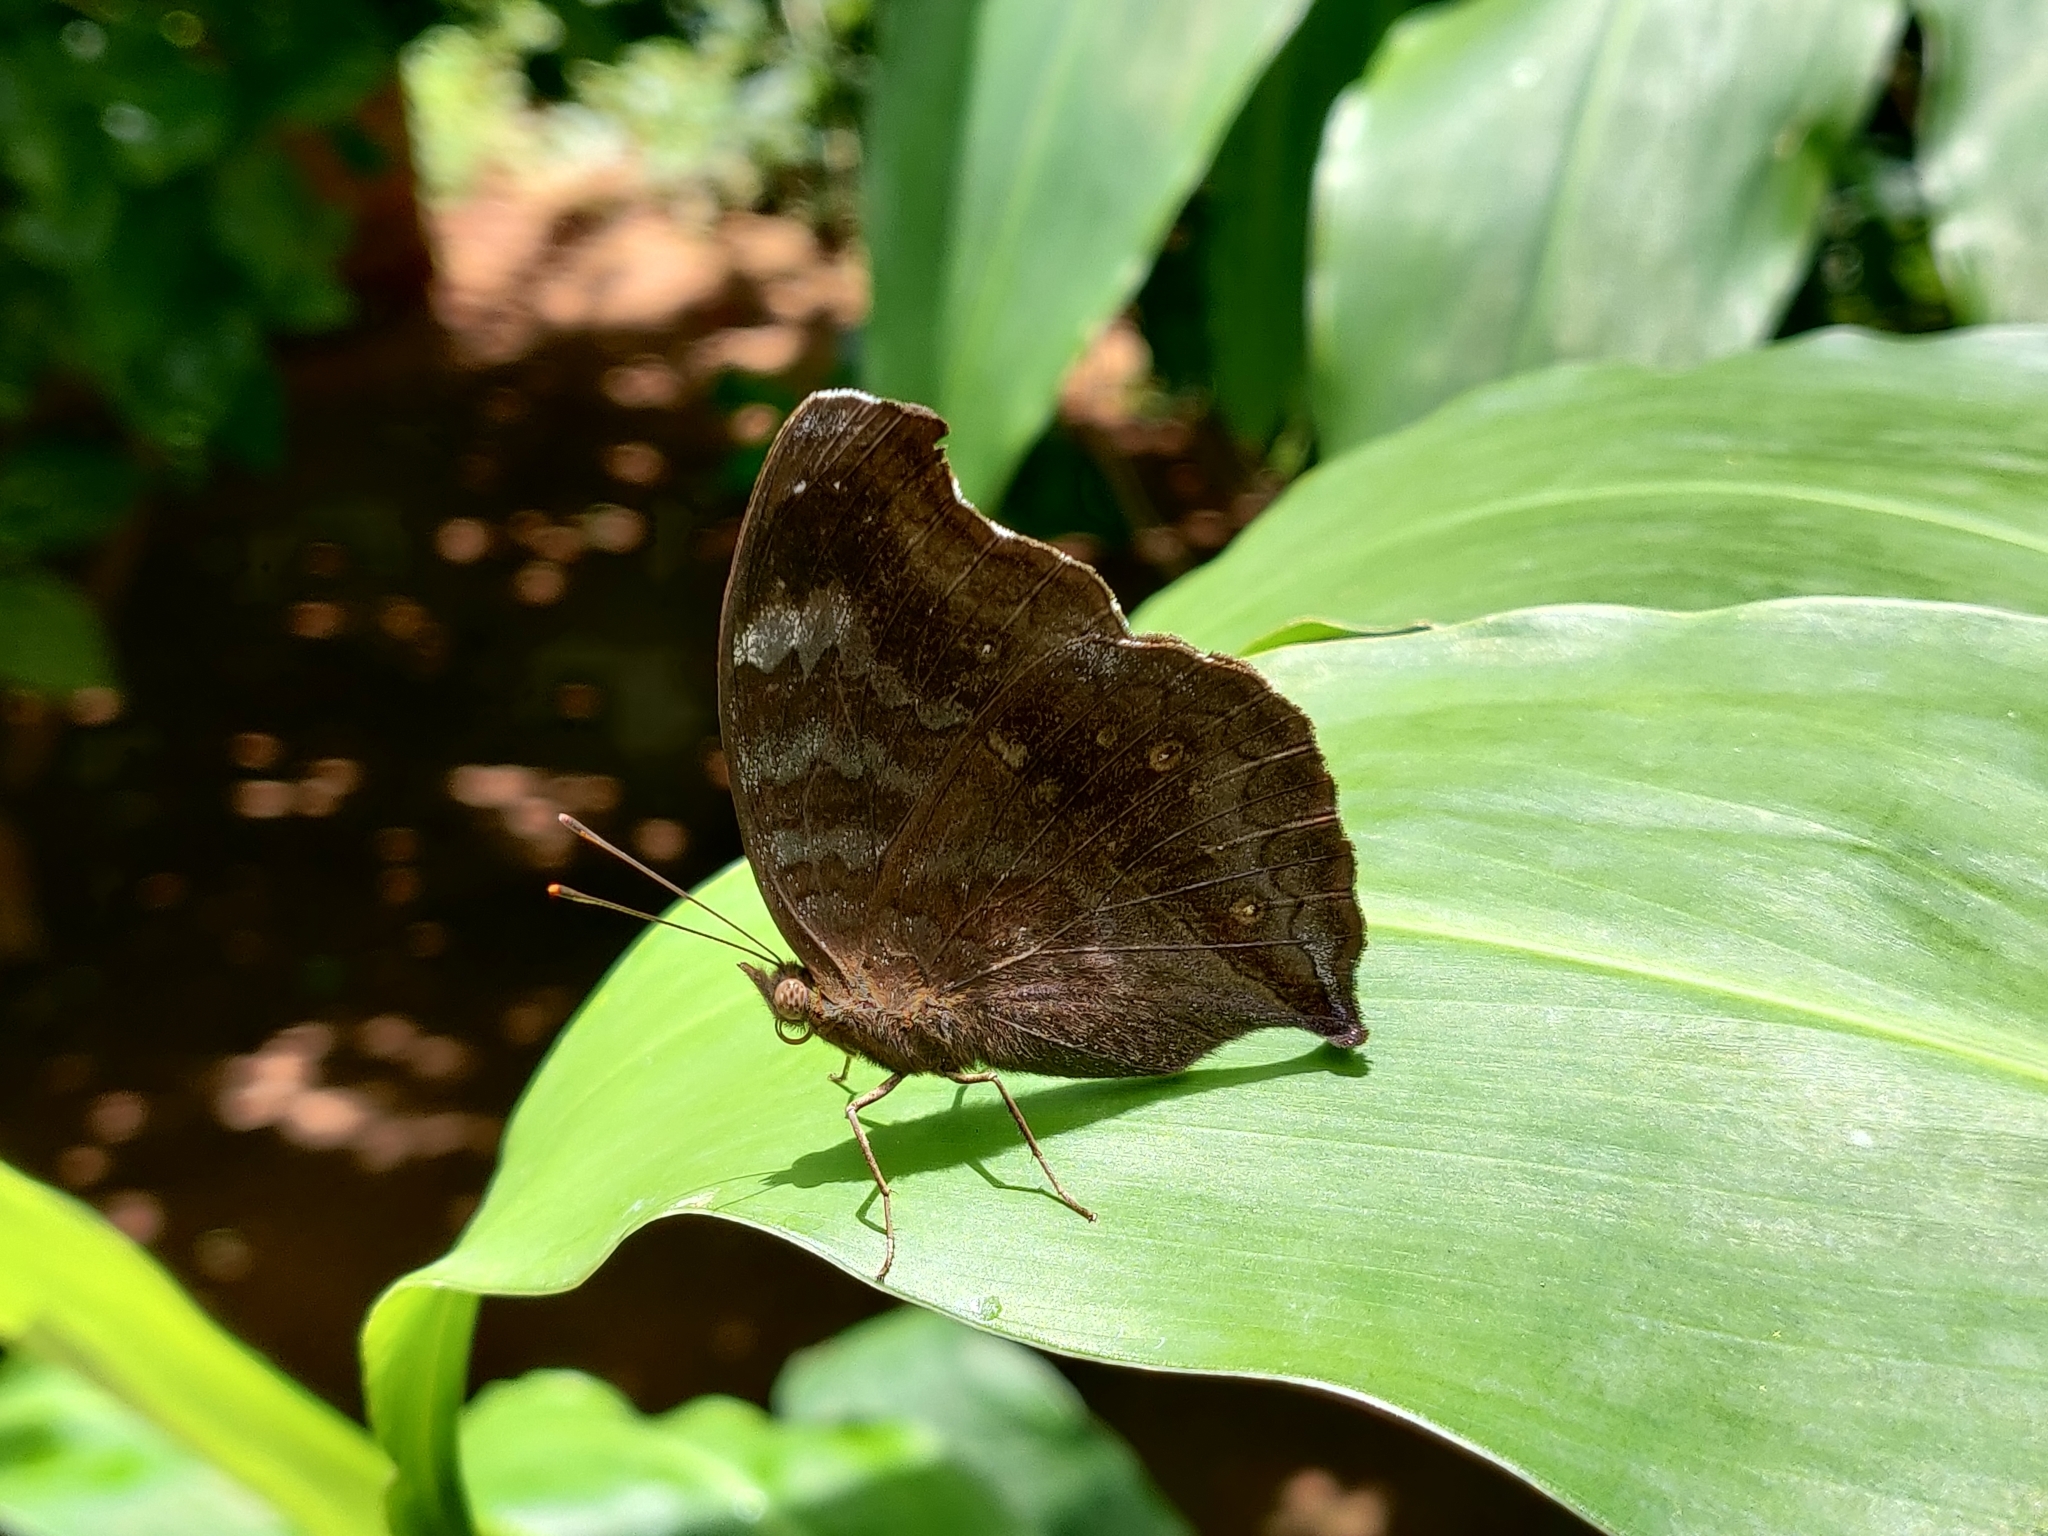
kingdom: Animalia
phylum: Arthropoda
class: Insecta
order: Lepidoptera
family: Nymphalidae
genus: Junonia
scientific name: Junonia iphita
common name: Chocolate pansy
